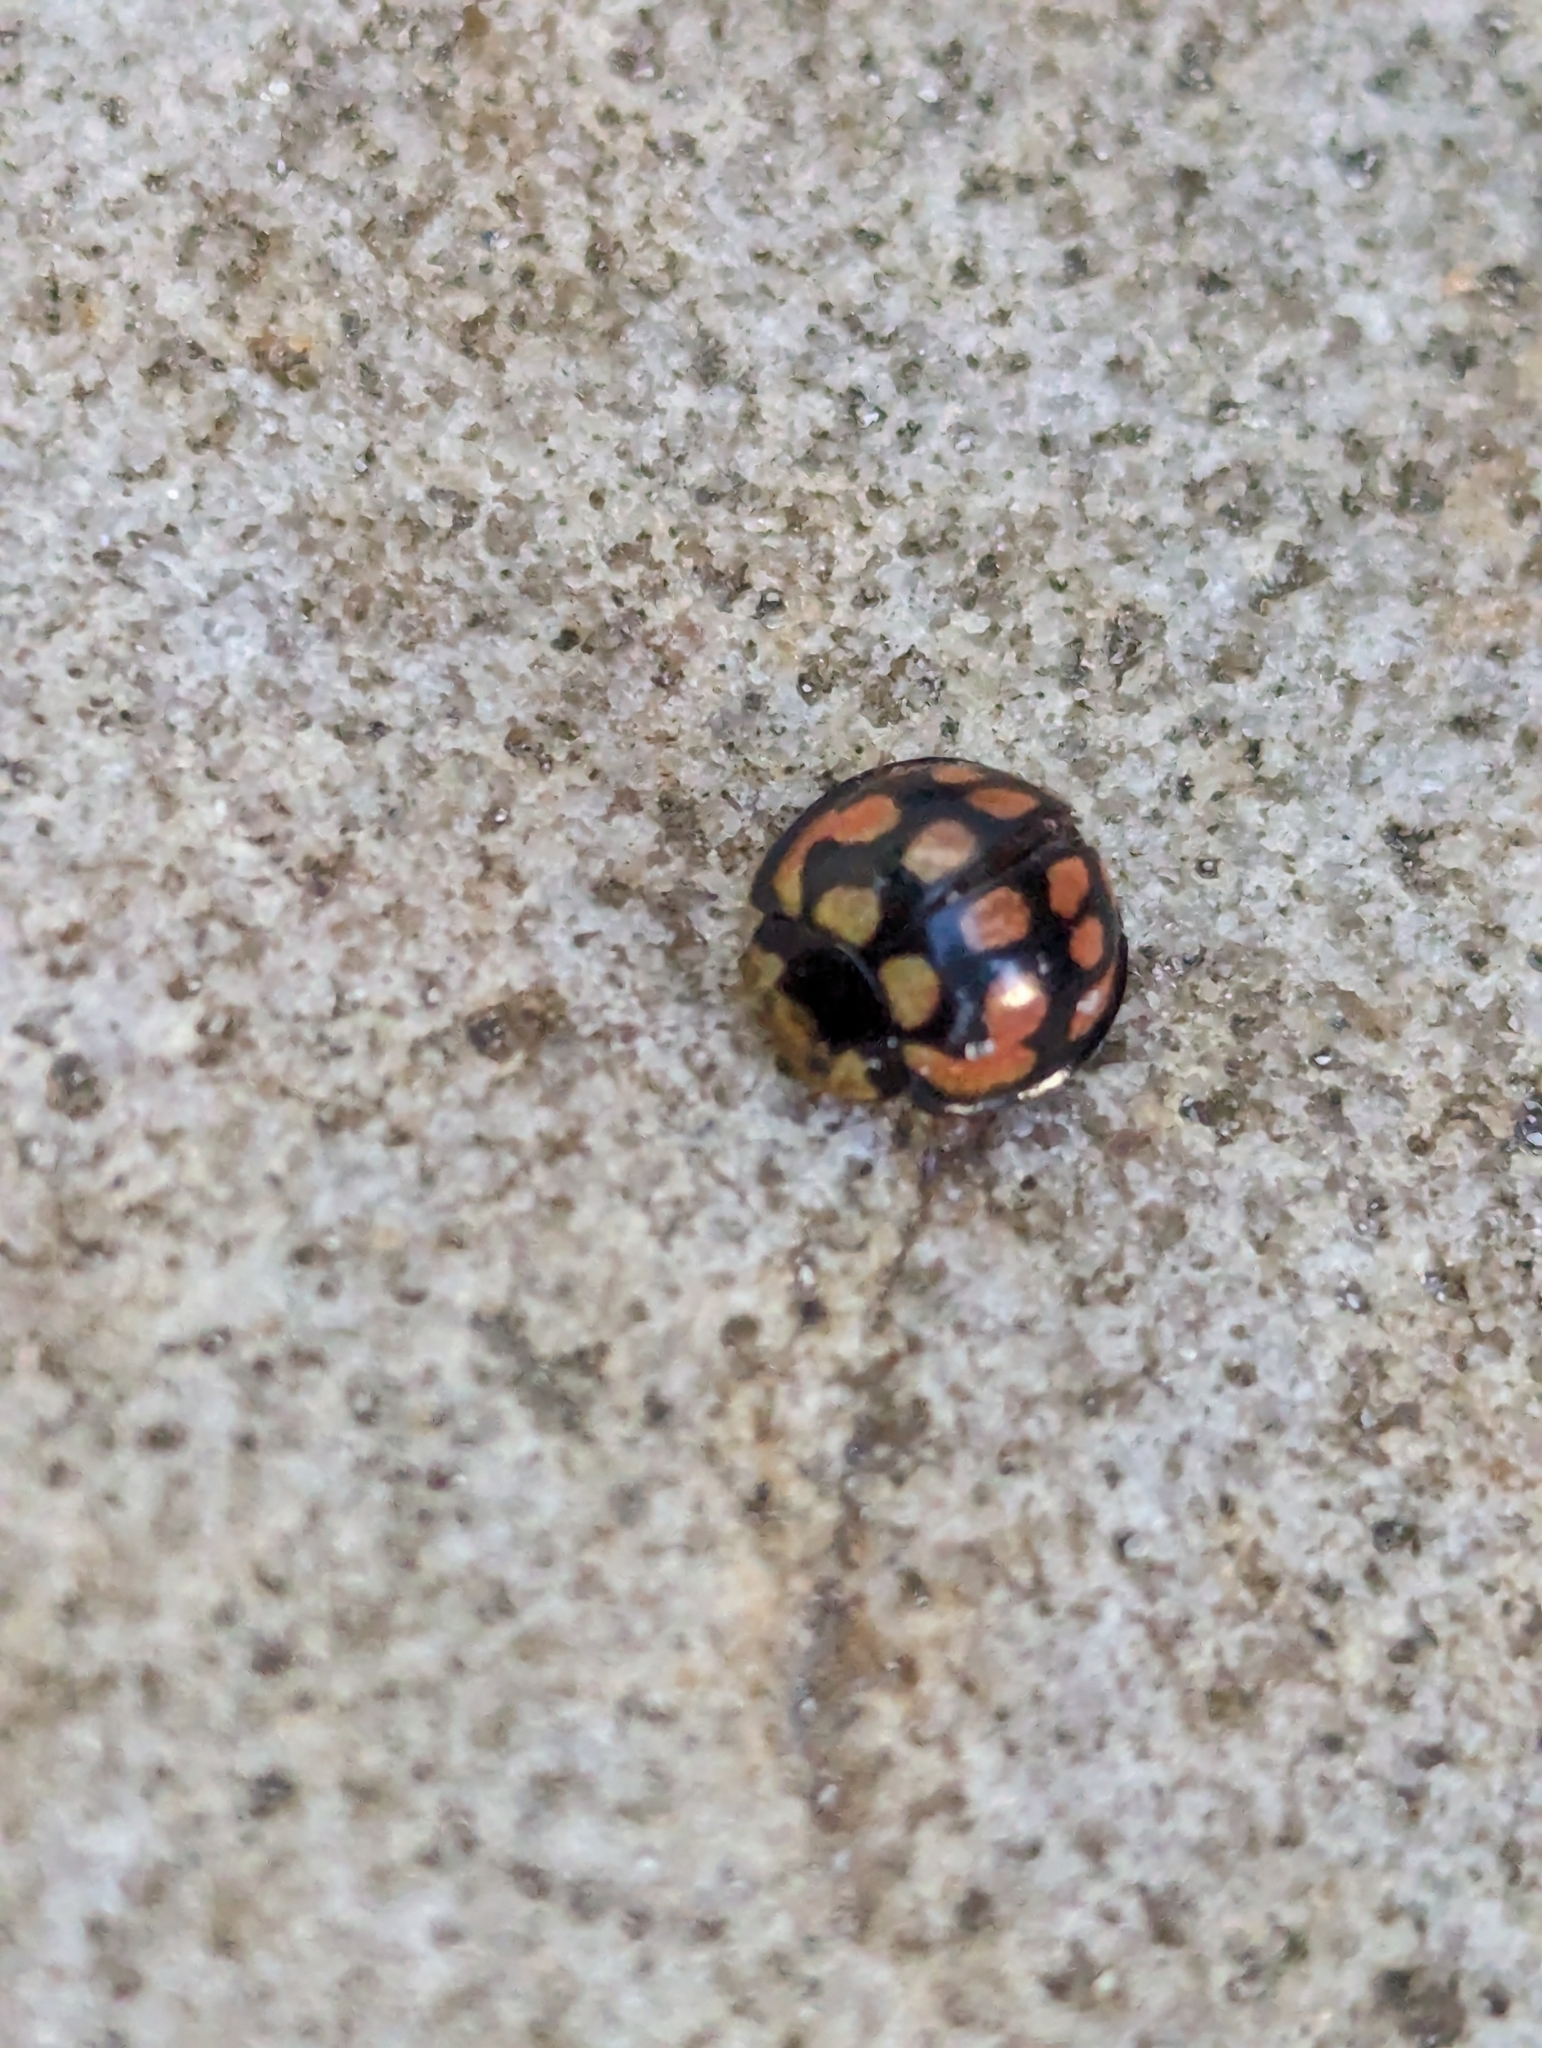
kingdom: Animalia
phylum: Arthropoda
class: Insecta
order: Coleoptera
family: Coccinellidae
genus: Cheilomenes
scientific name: Cheilomenes lunata
